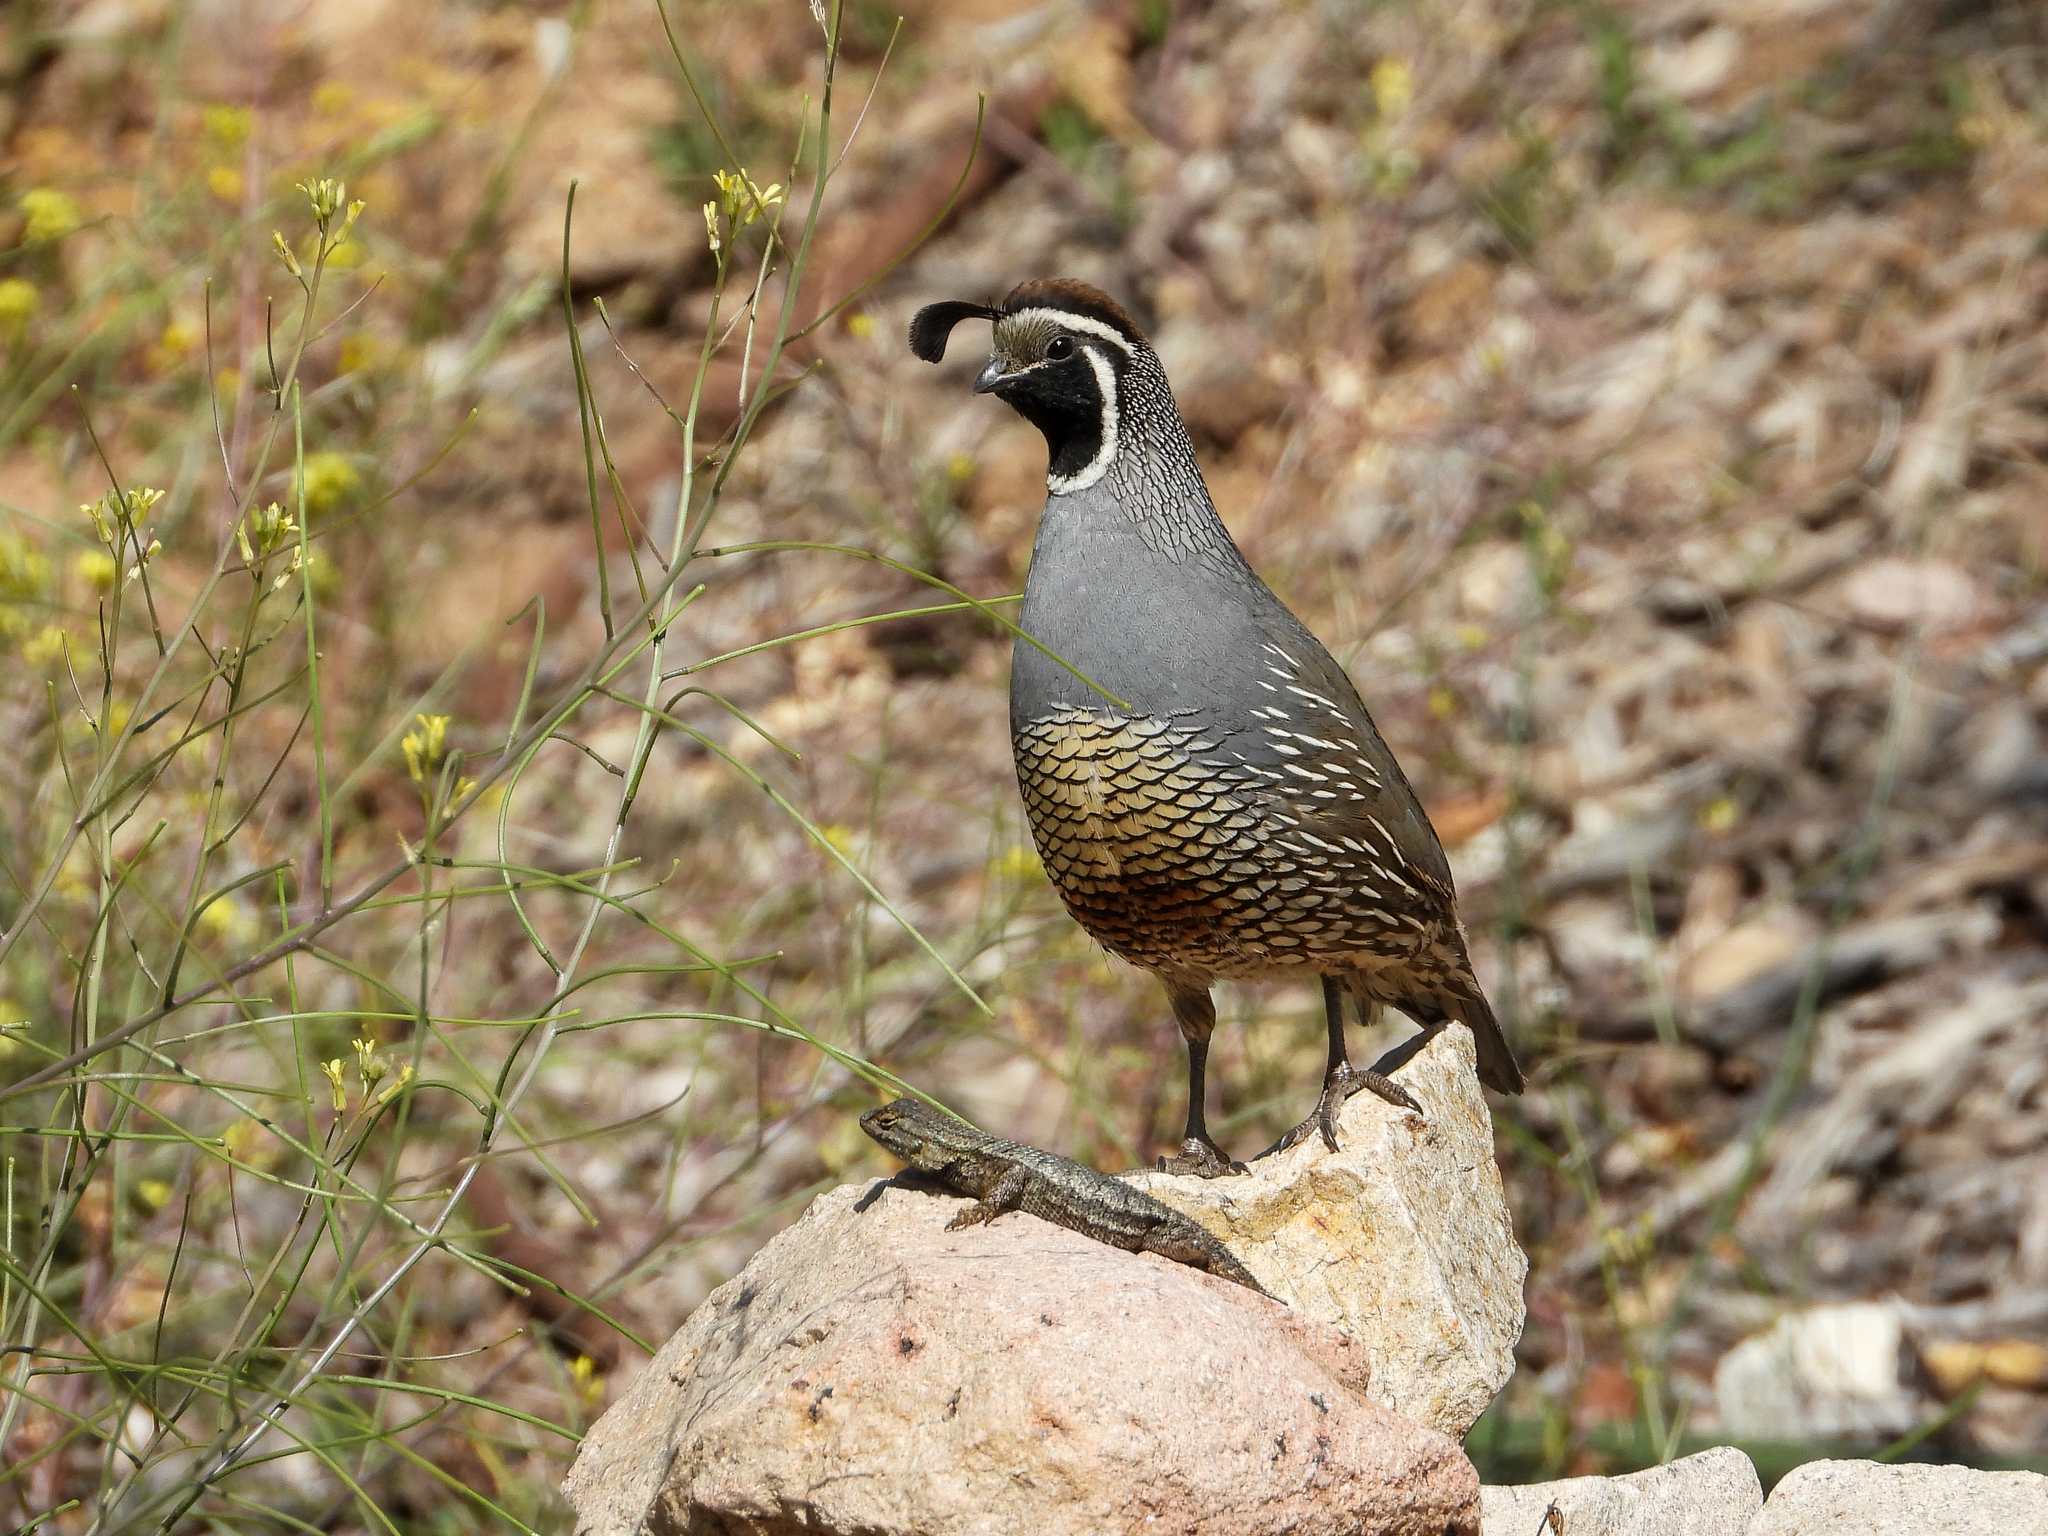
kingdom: Animalia
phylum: Chordata
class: Aves
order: Galliformes
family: Odontophoridae
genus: Callipepla
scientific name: Callipepla californica
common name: California quail
